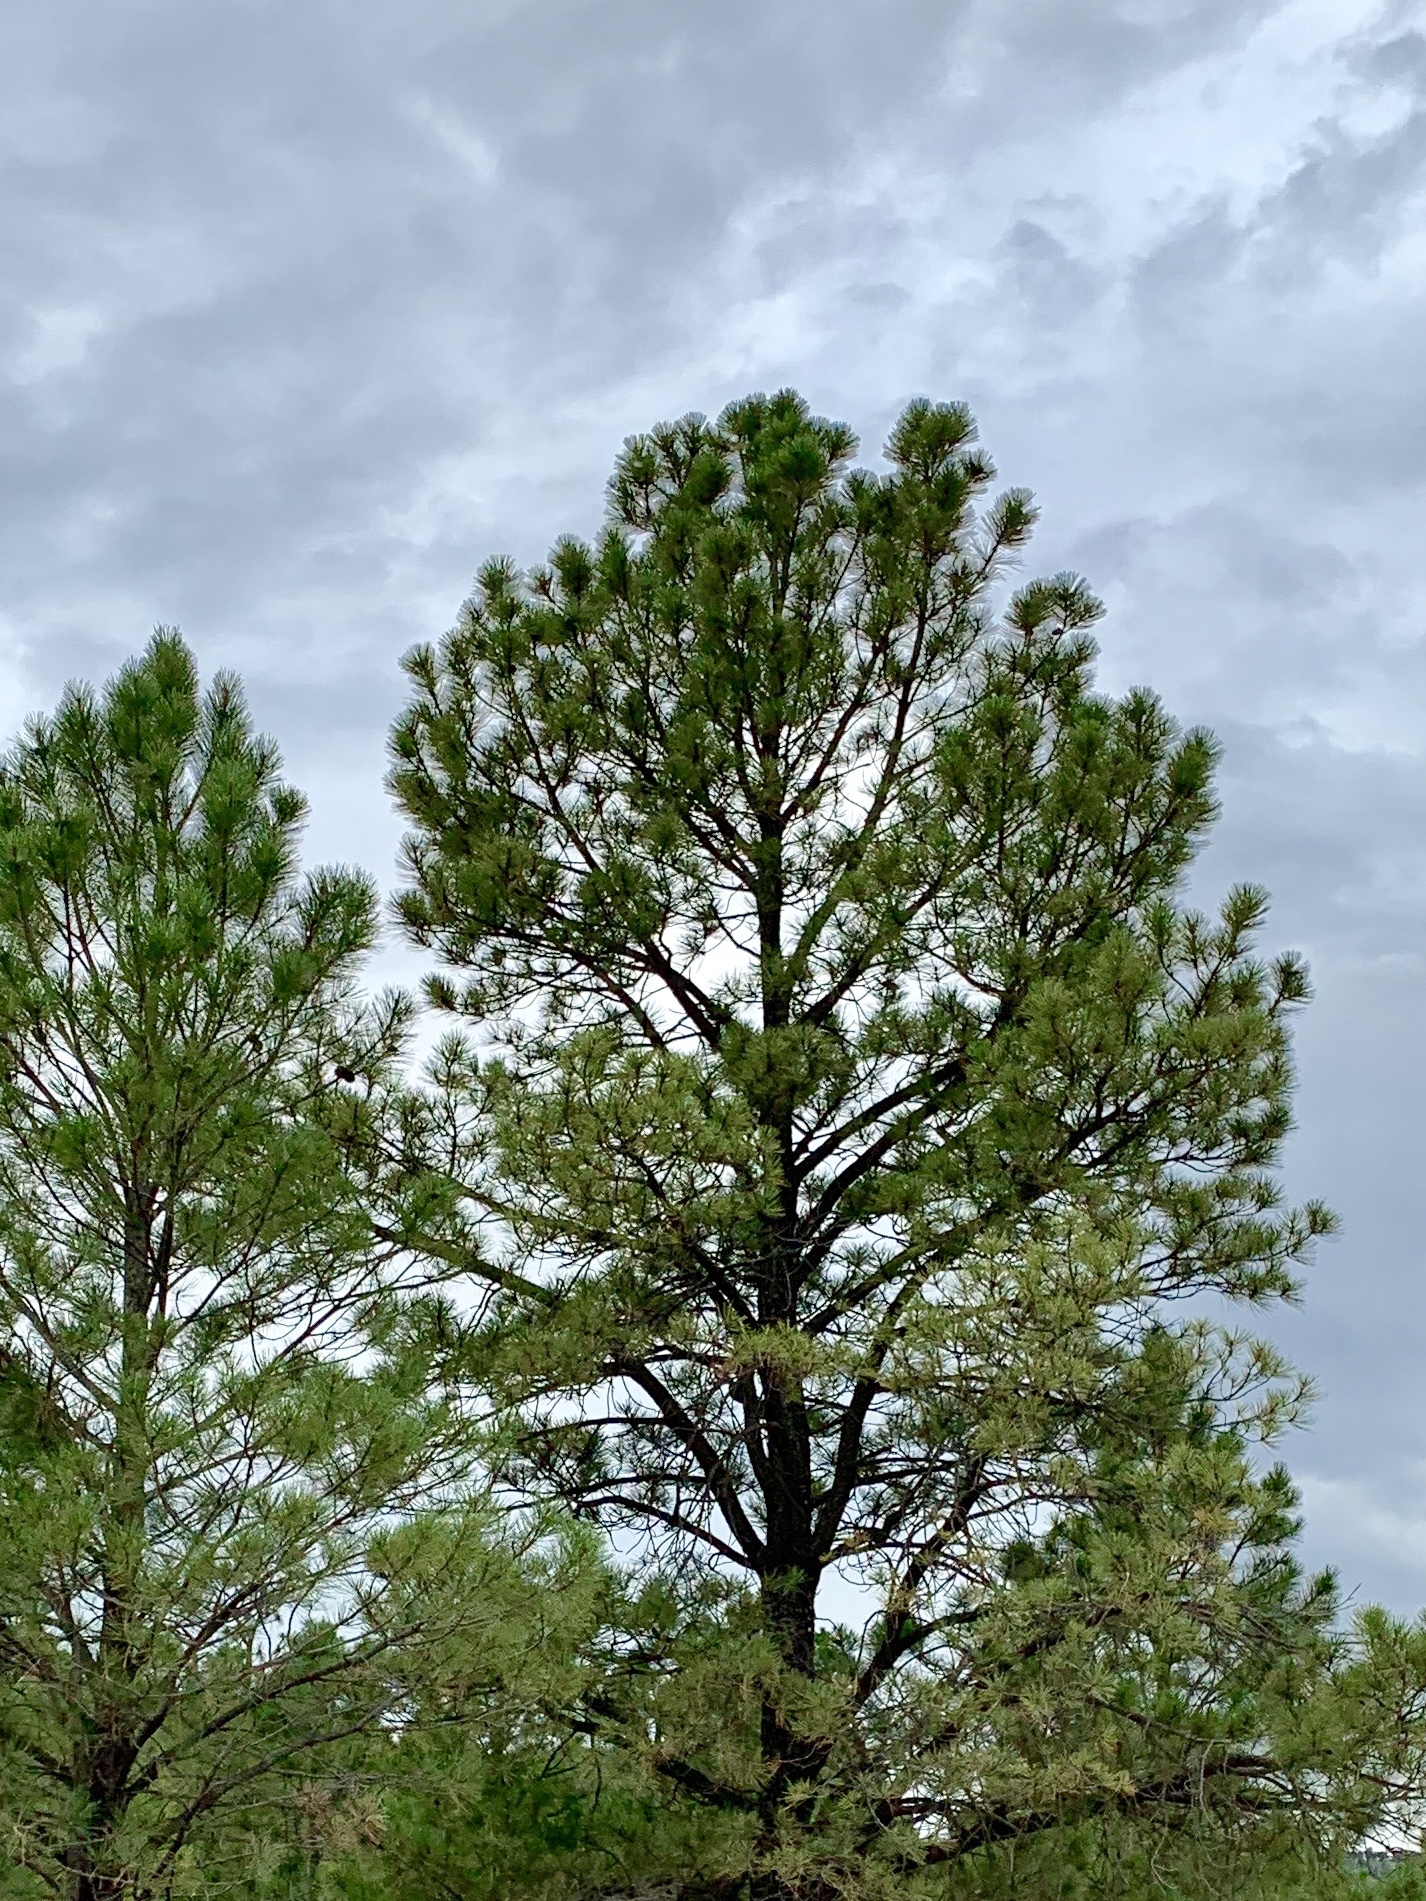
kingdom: Plantae
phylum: Tracheophyta
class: Pinopsida
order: Pinales
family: Pinaceae
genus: Pinus
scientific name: Pinus ponderosa
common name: Western yellow-pine
